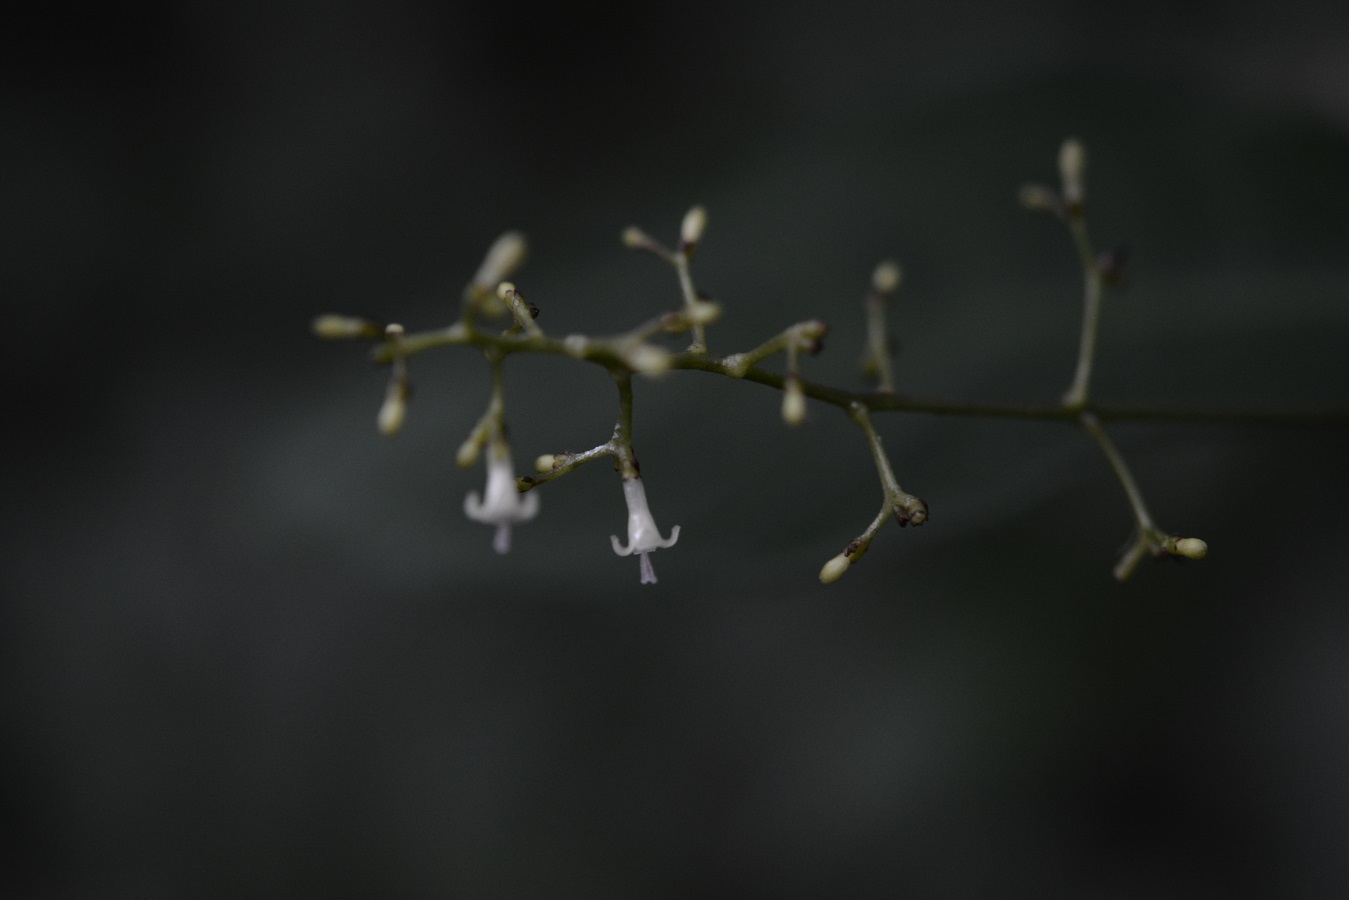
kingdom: Plantae
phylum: Tracheophyta
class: Magnoliopsida
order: Gentianales
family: Rubiaceae
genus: Palicourea
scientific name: Palicourea deflexa
